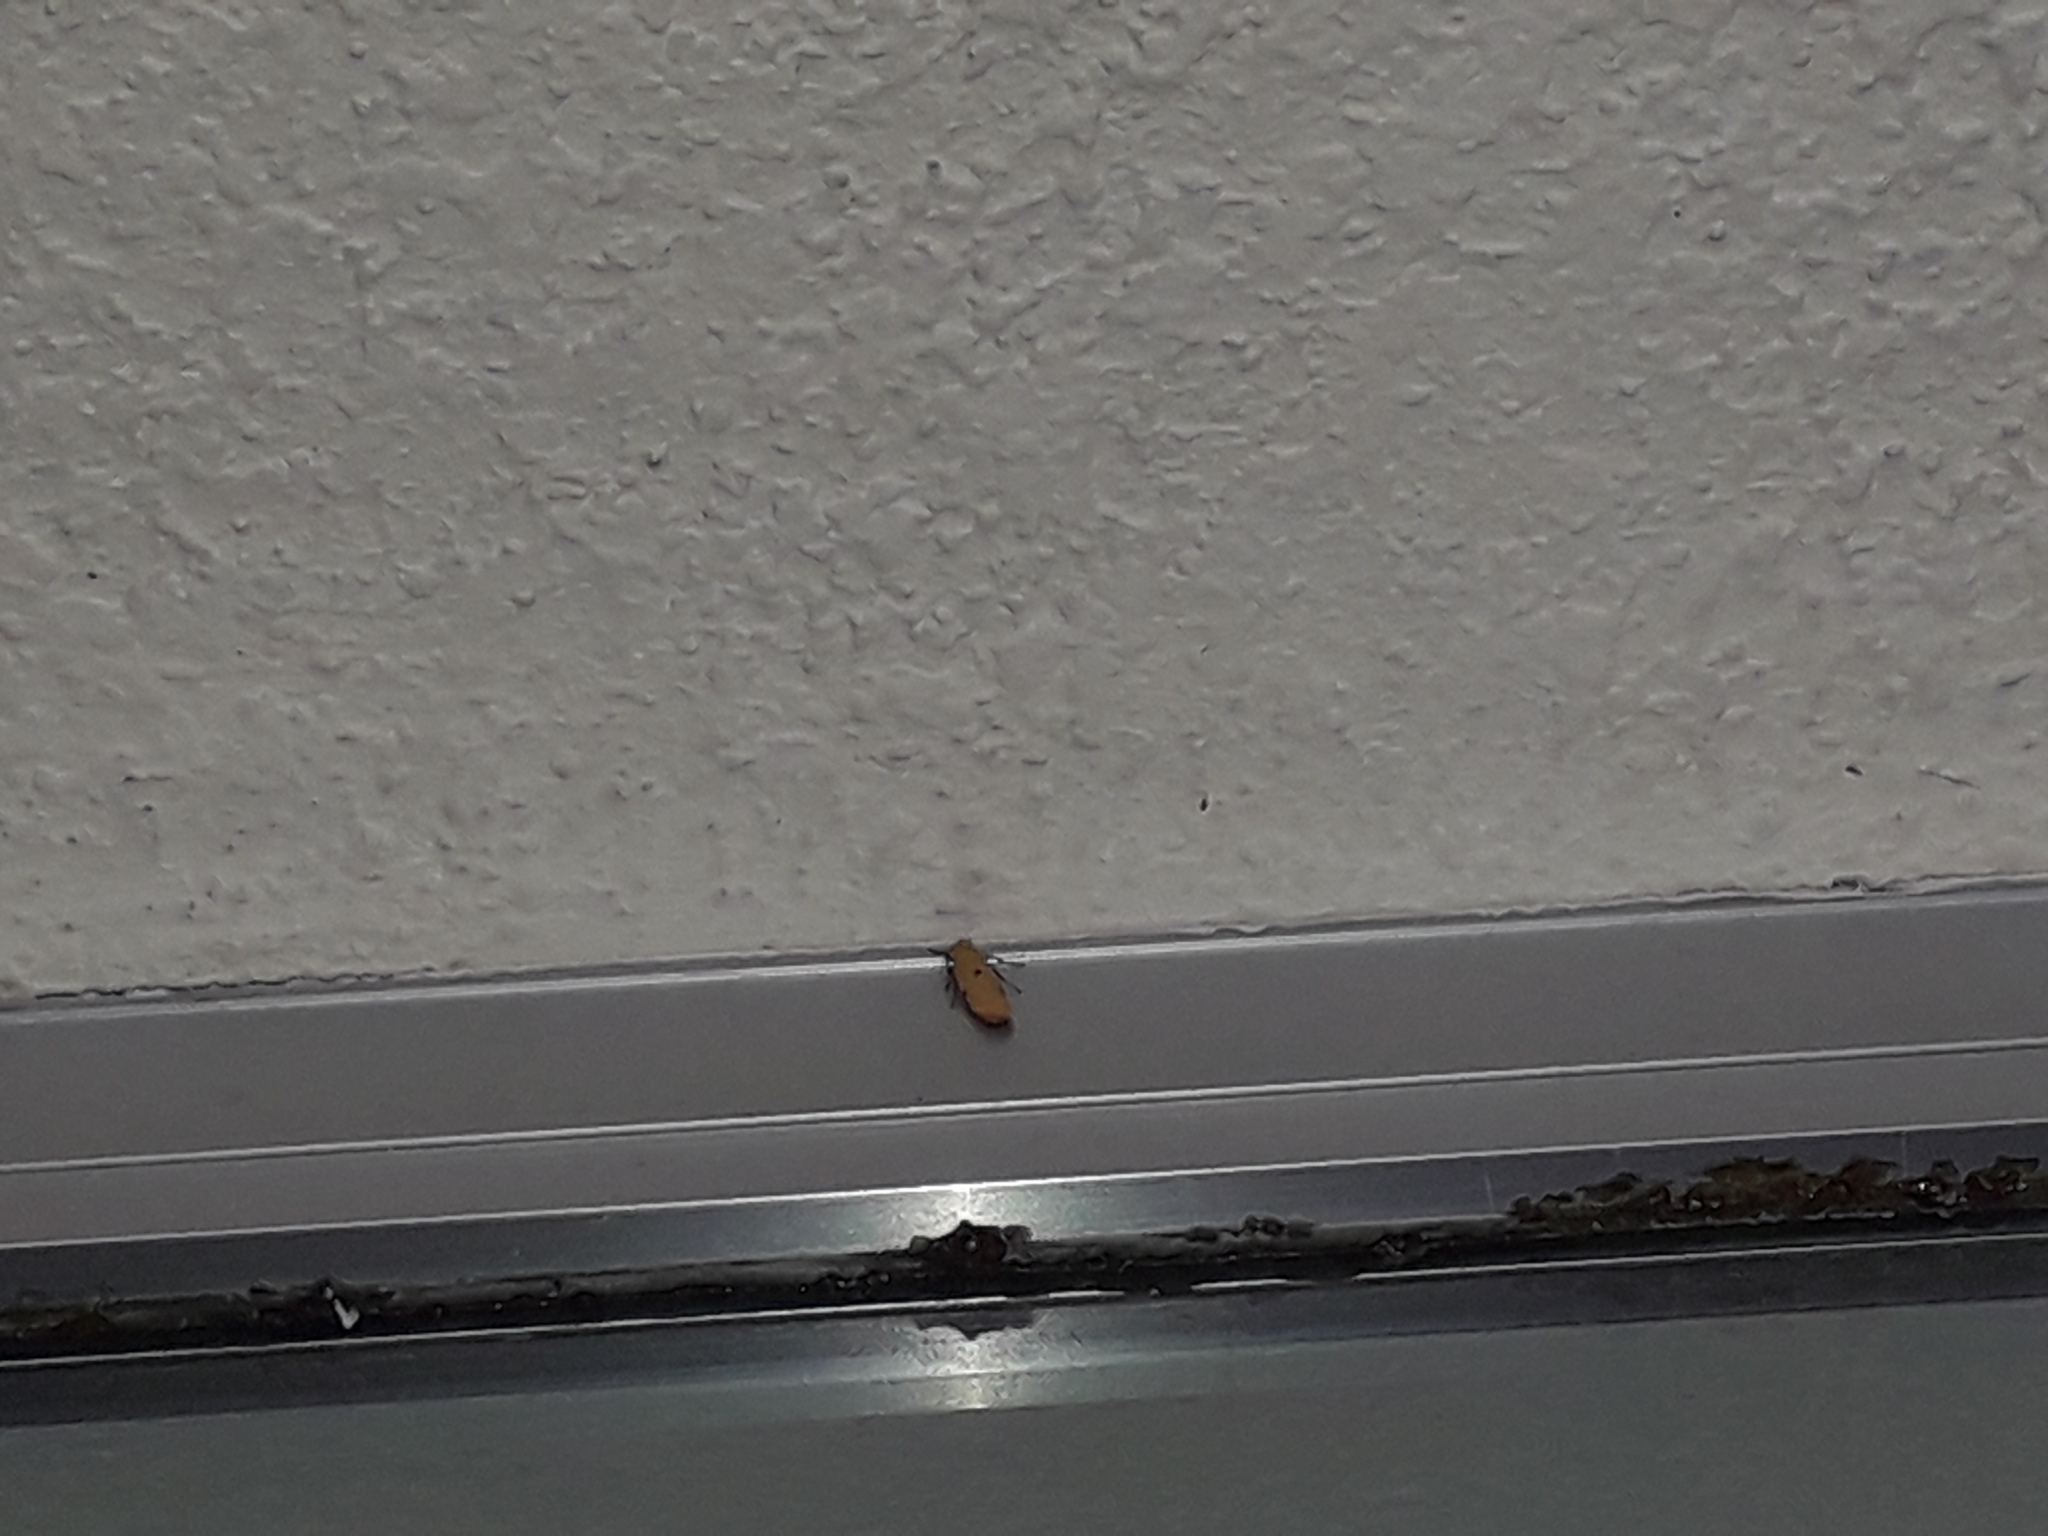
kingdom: Animalia
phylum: Arthropoda
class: Insecta
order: Lepidoptera
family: Erebidae
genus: Lithosia
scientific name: Lithosia quadra
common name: Four-spotted footman
